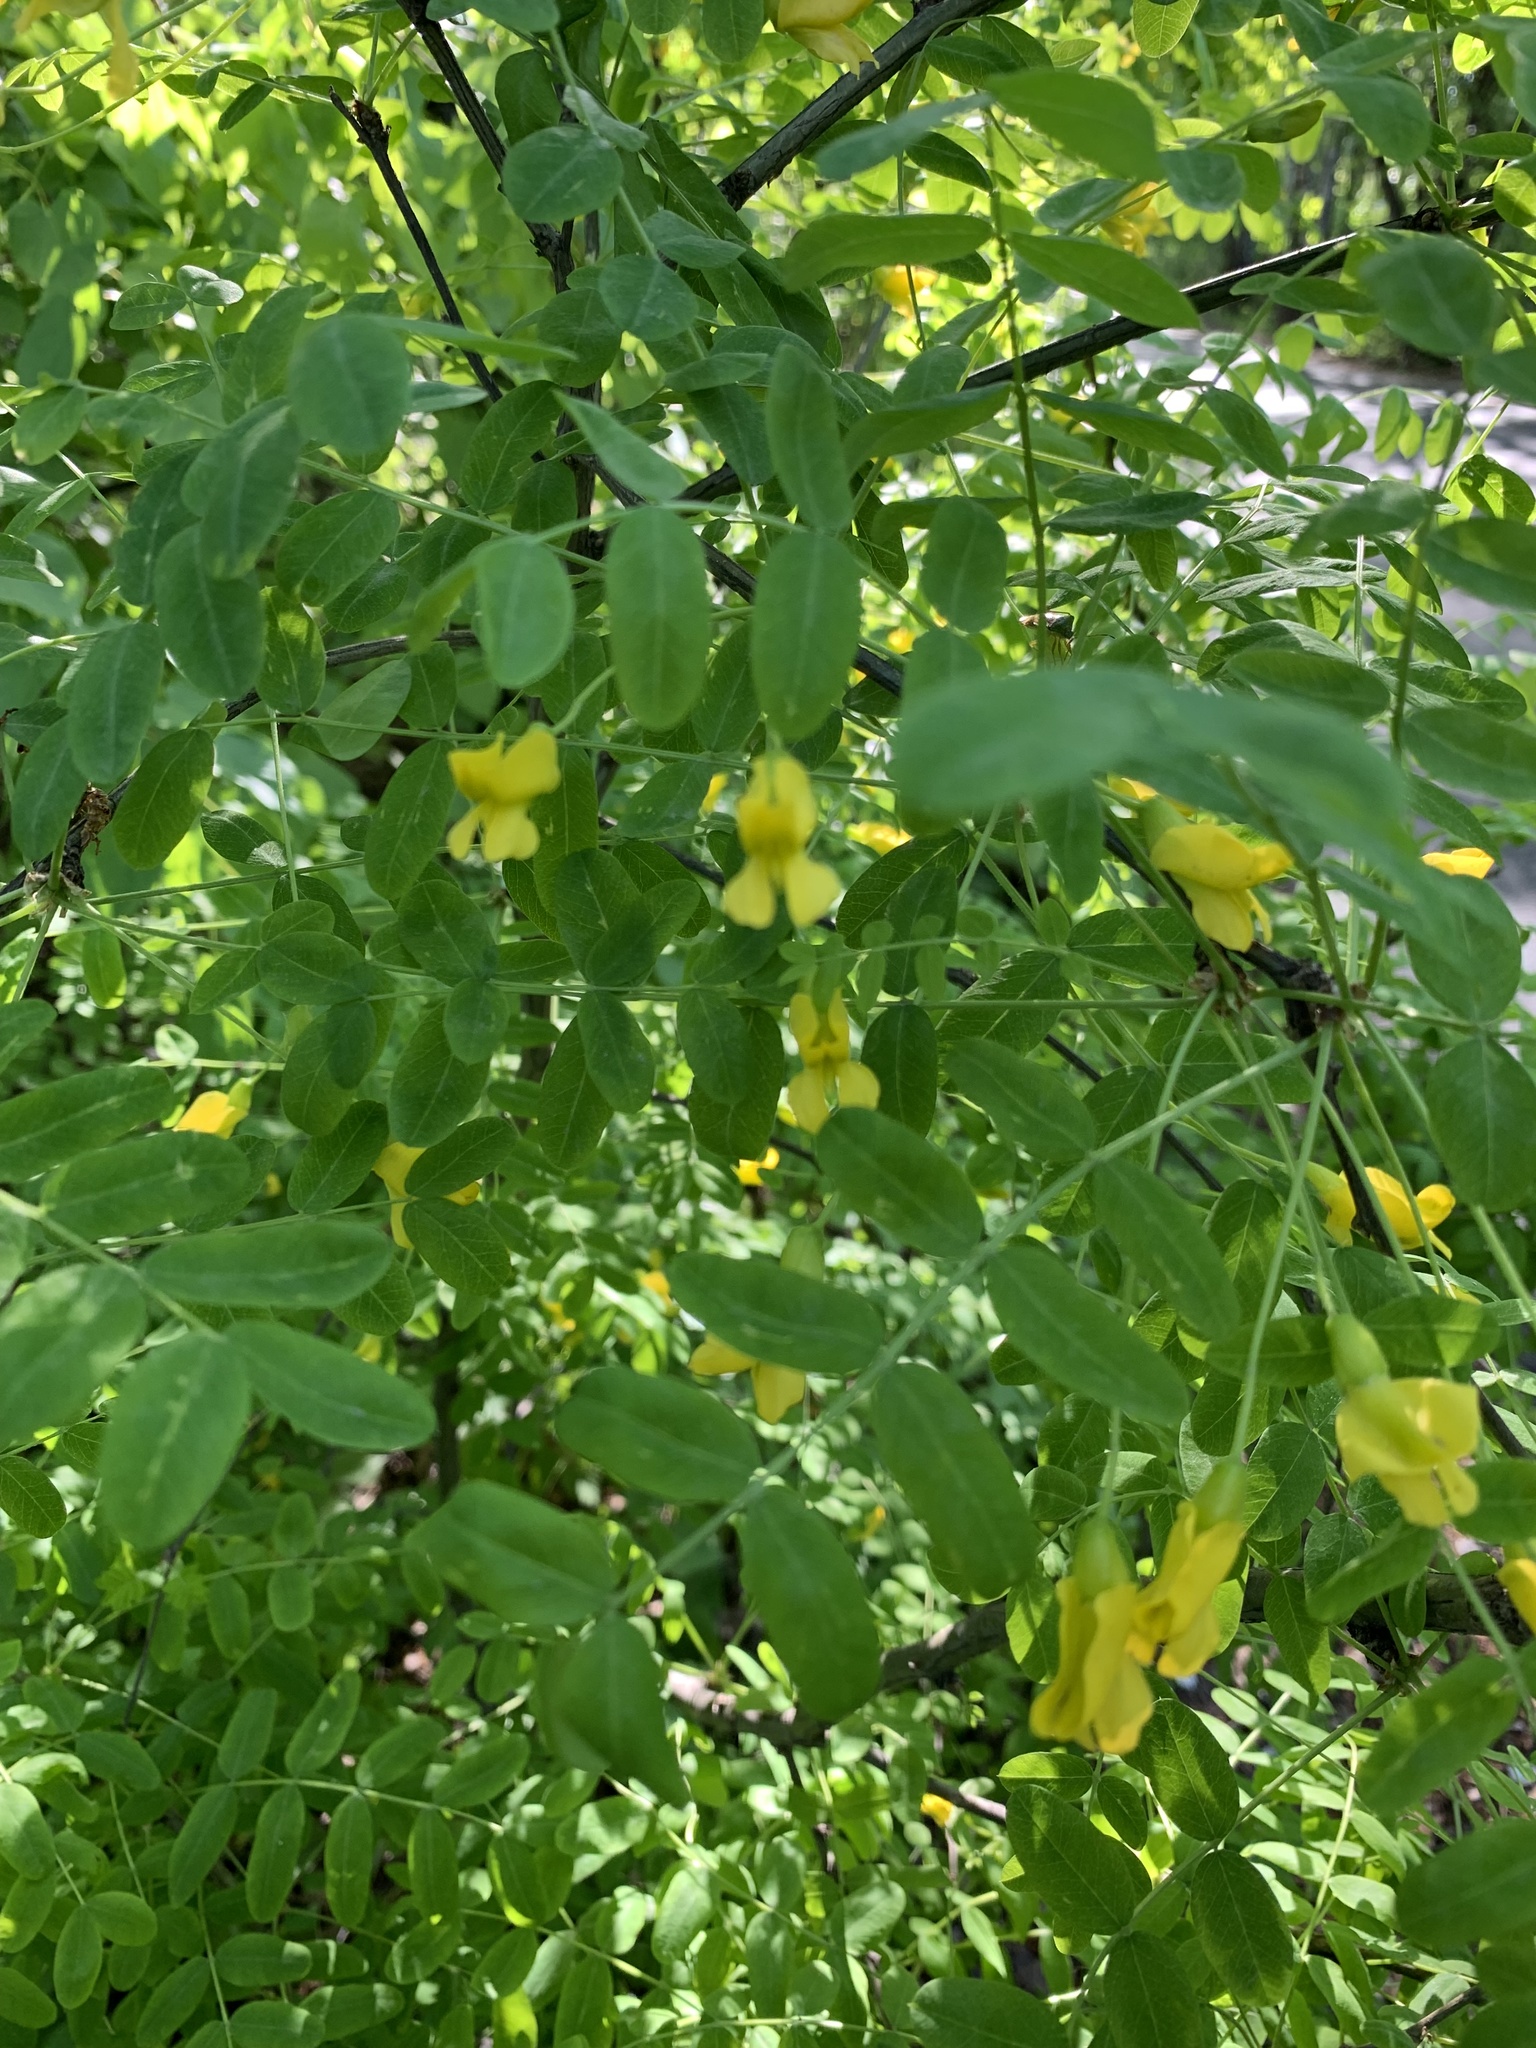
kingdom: Plantae
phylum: Tracheophyta
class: Magnoliopsida
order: Fabales
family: Fabaceae
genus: Caragana
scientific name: Caragana arborescens
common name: Siberian peashrub
